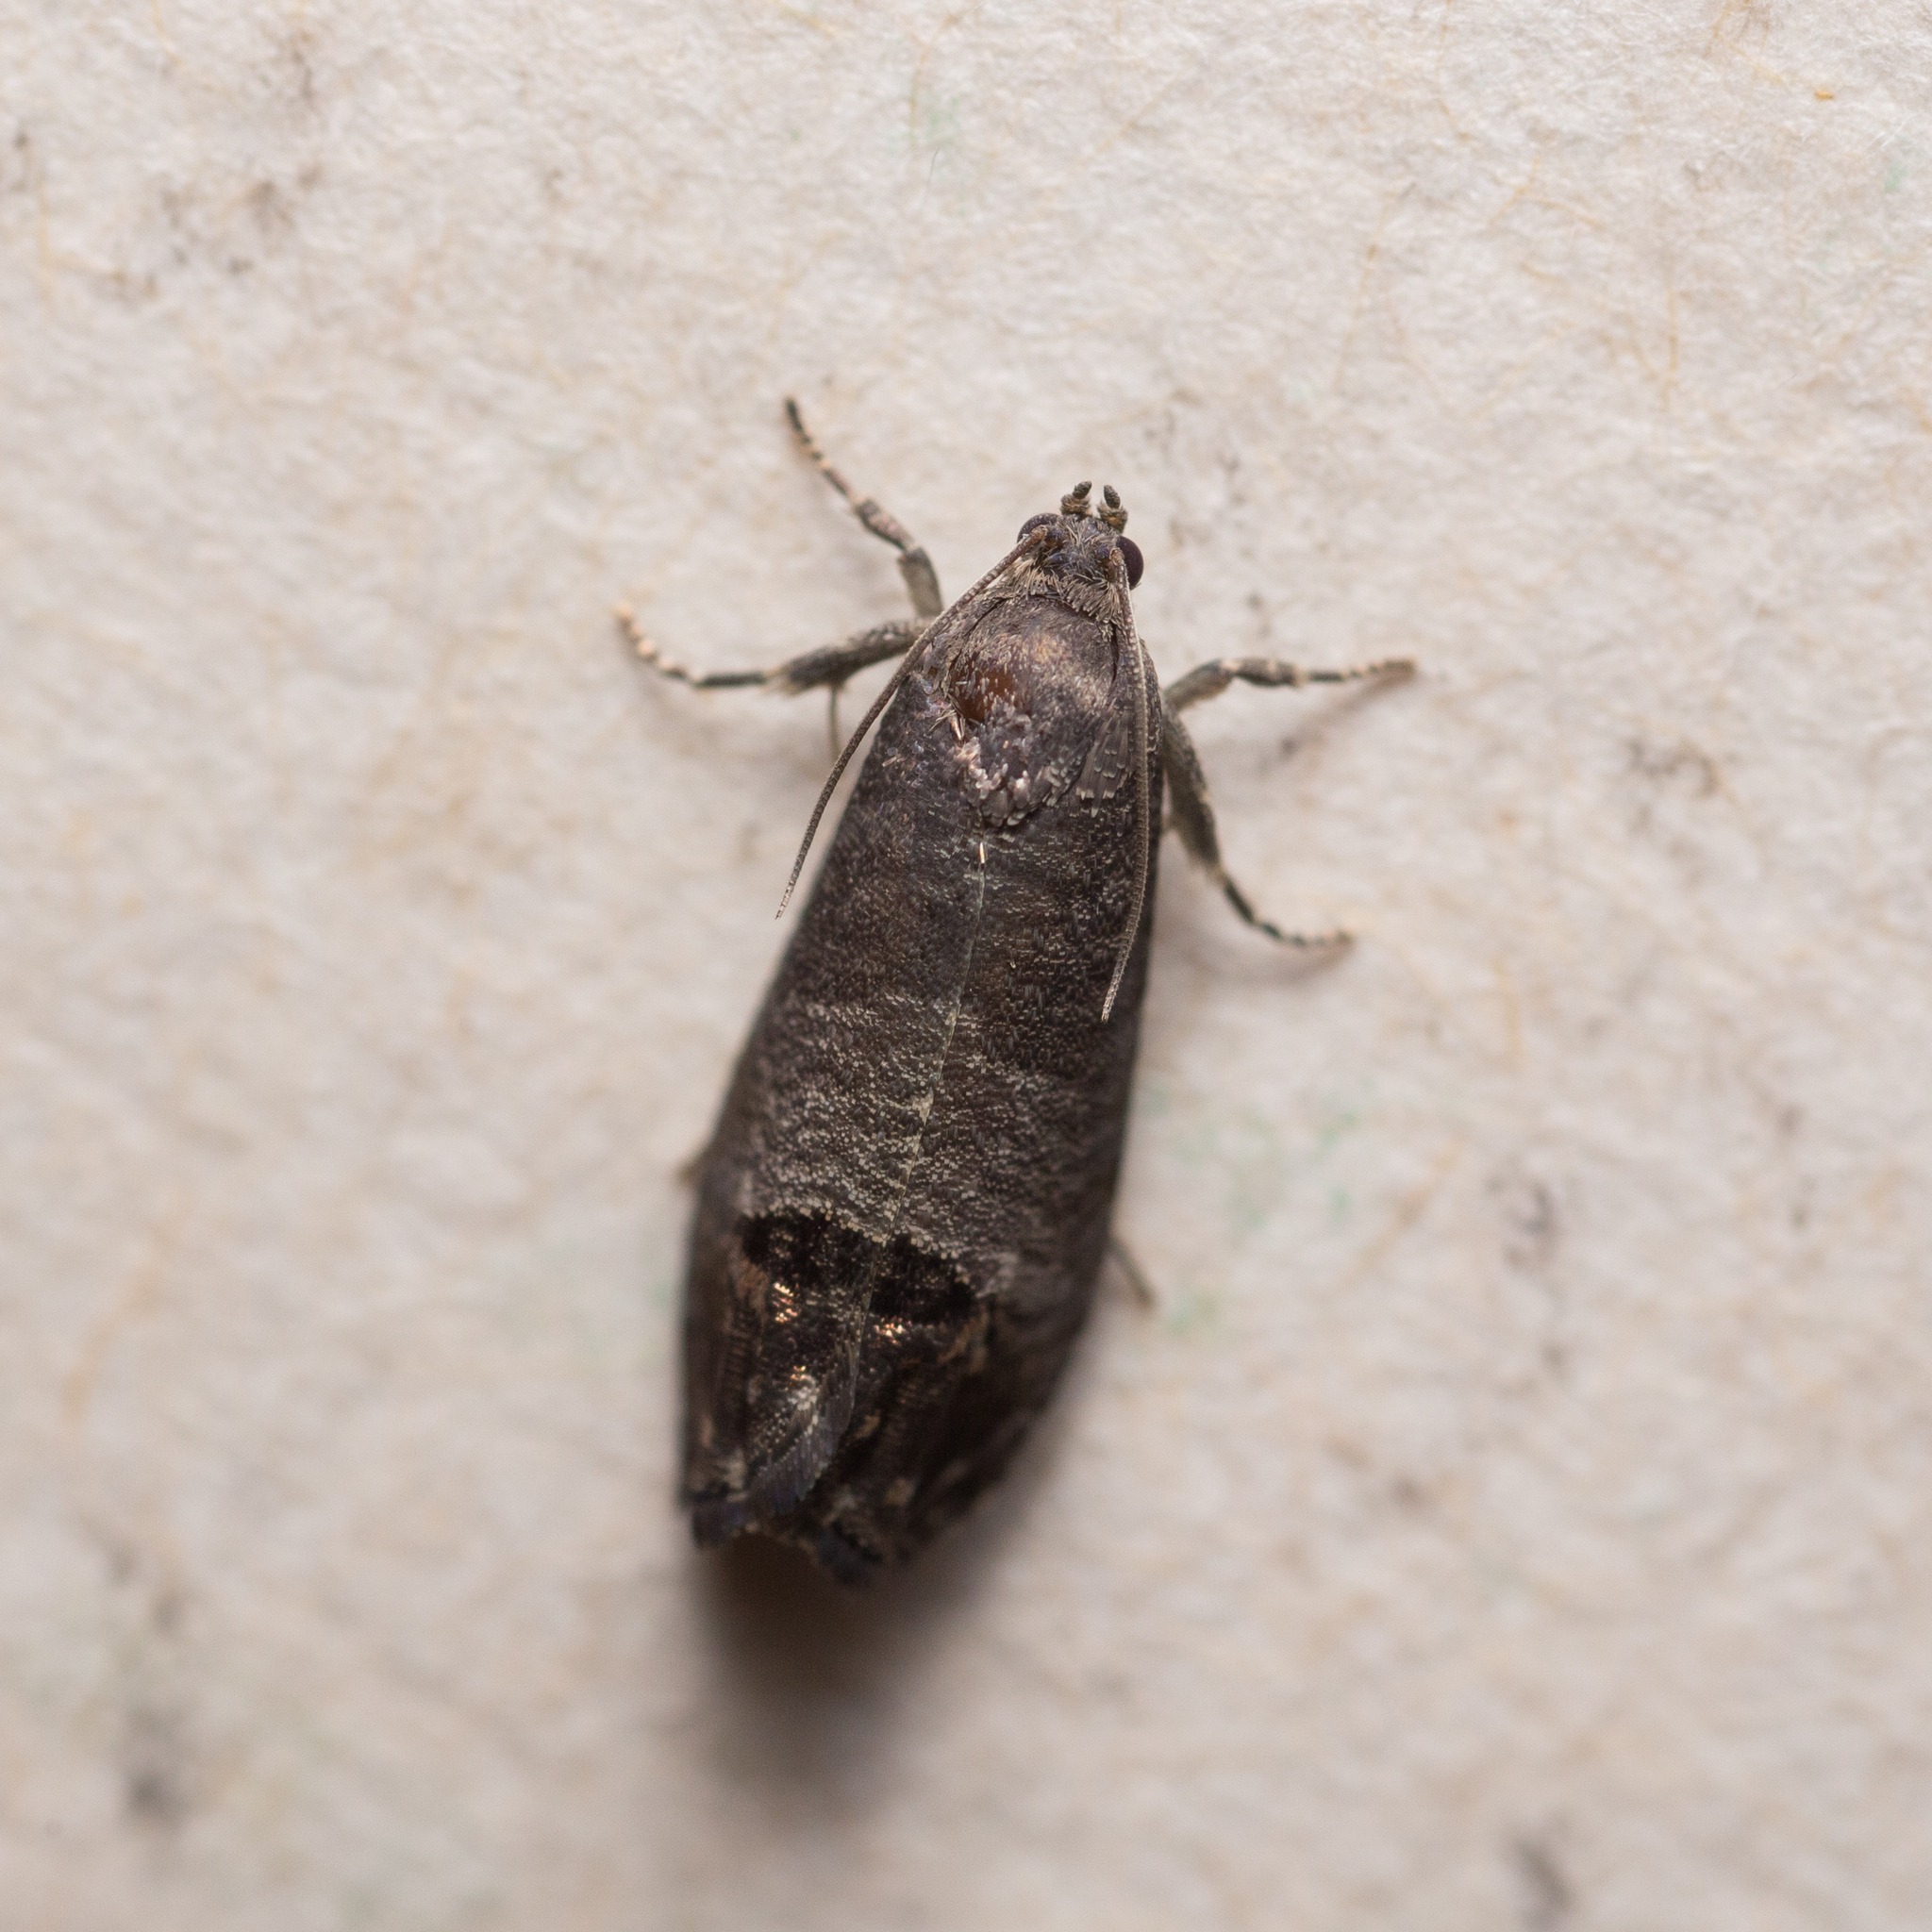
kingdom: Animalia
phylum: Arthropoda
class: Insecta
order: Lepidoptera
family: Tortricidae
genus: Cydia
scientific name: Cydia pomonella
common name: Codling moth
